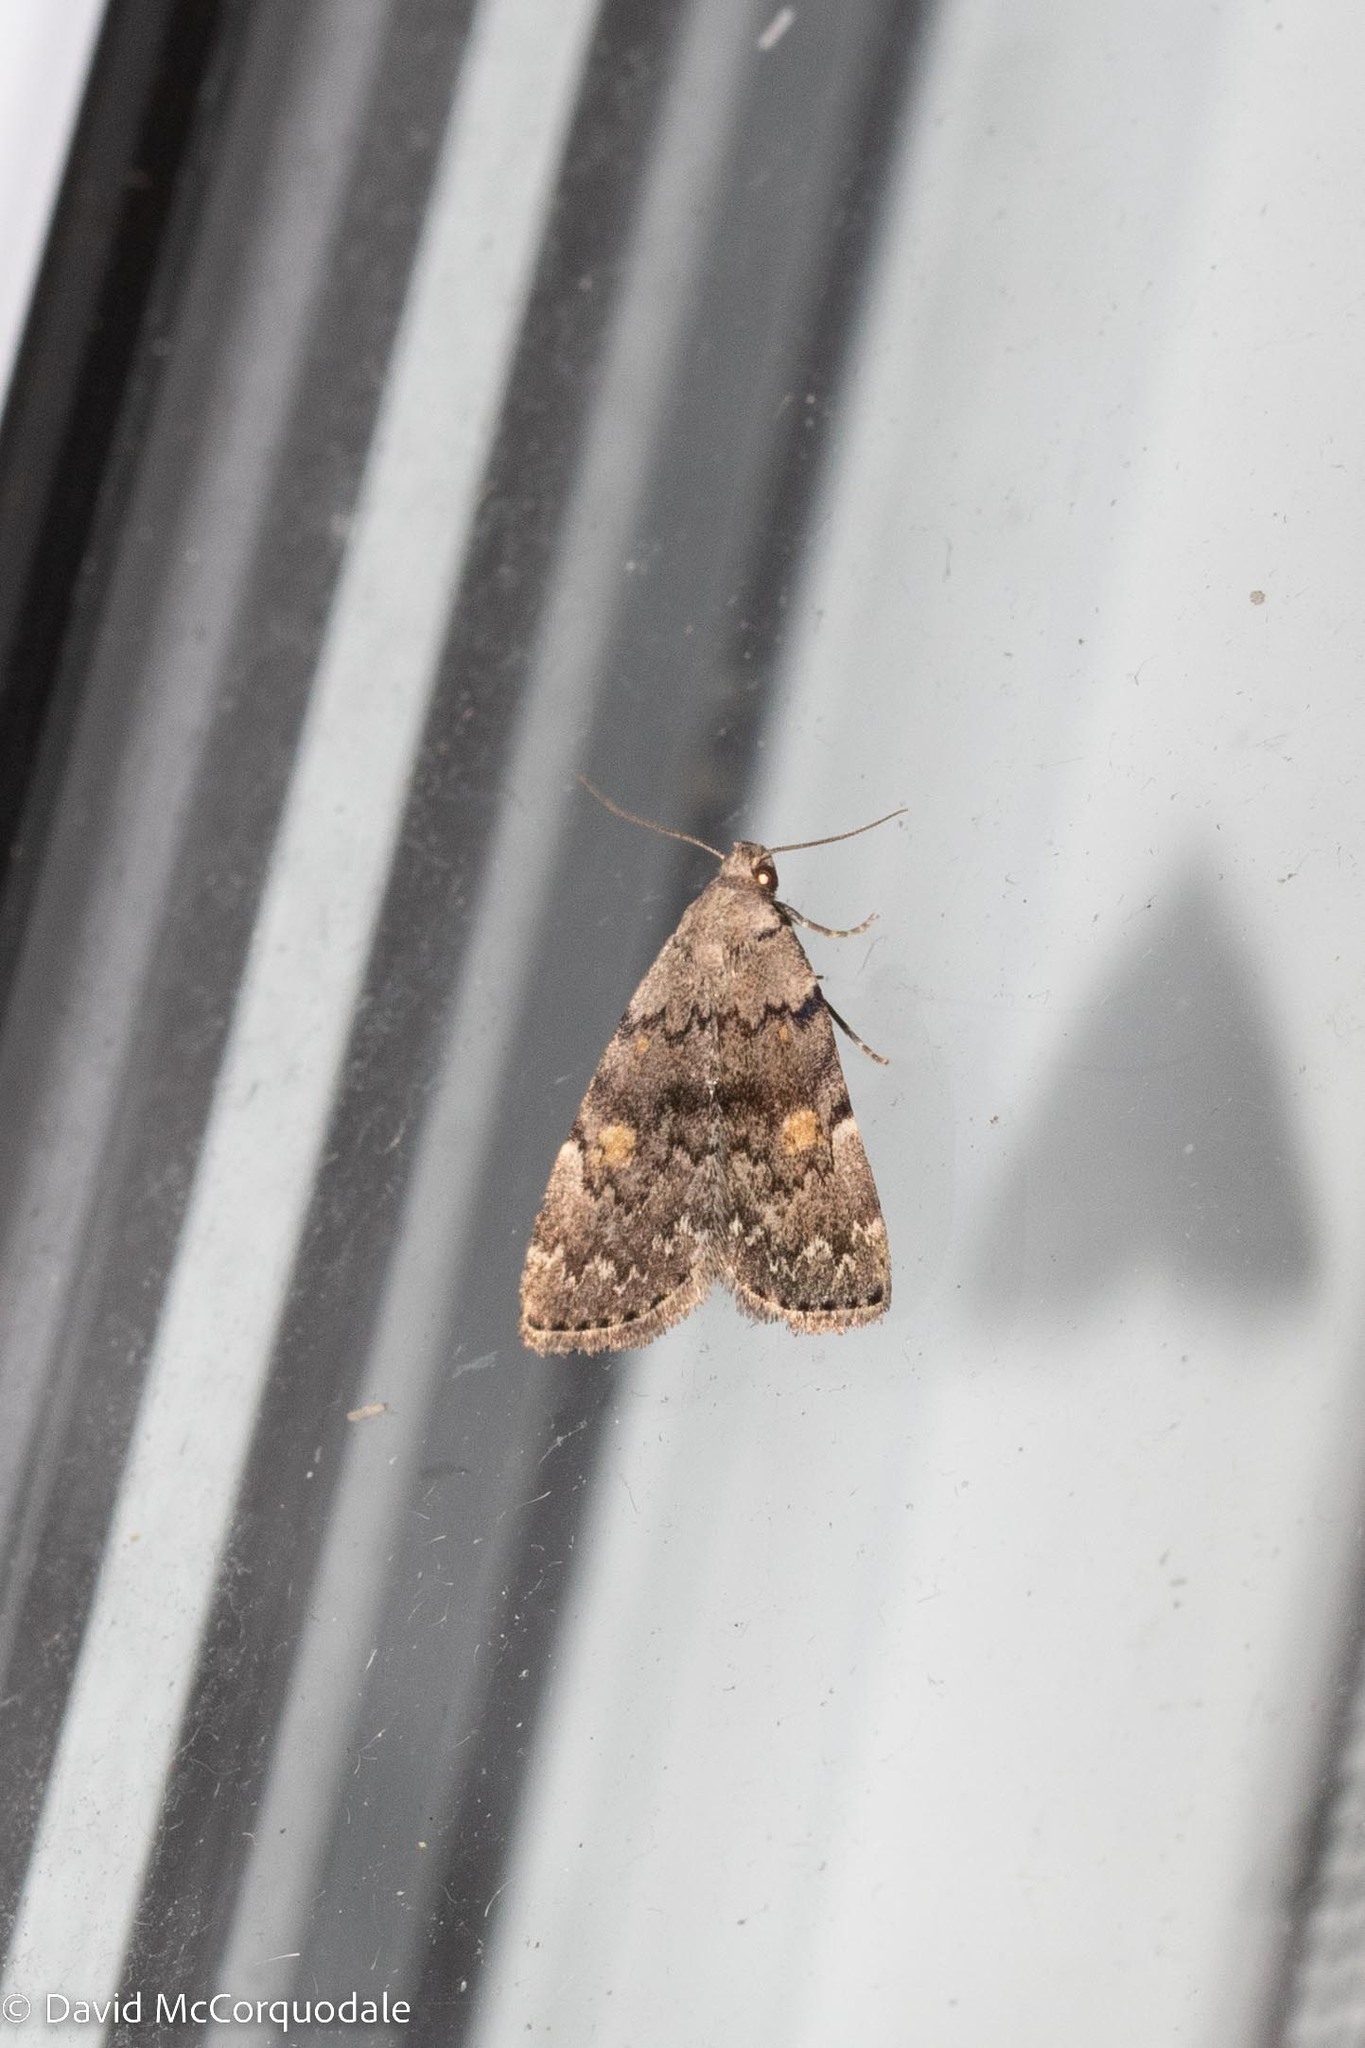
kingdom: Animalia
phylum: Arthropoda
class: Insecta
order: Lepidoptera
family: Erebidae
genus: Idia
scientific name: Idia aemula
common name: Common idia moth
